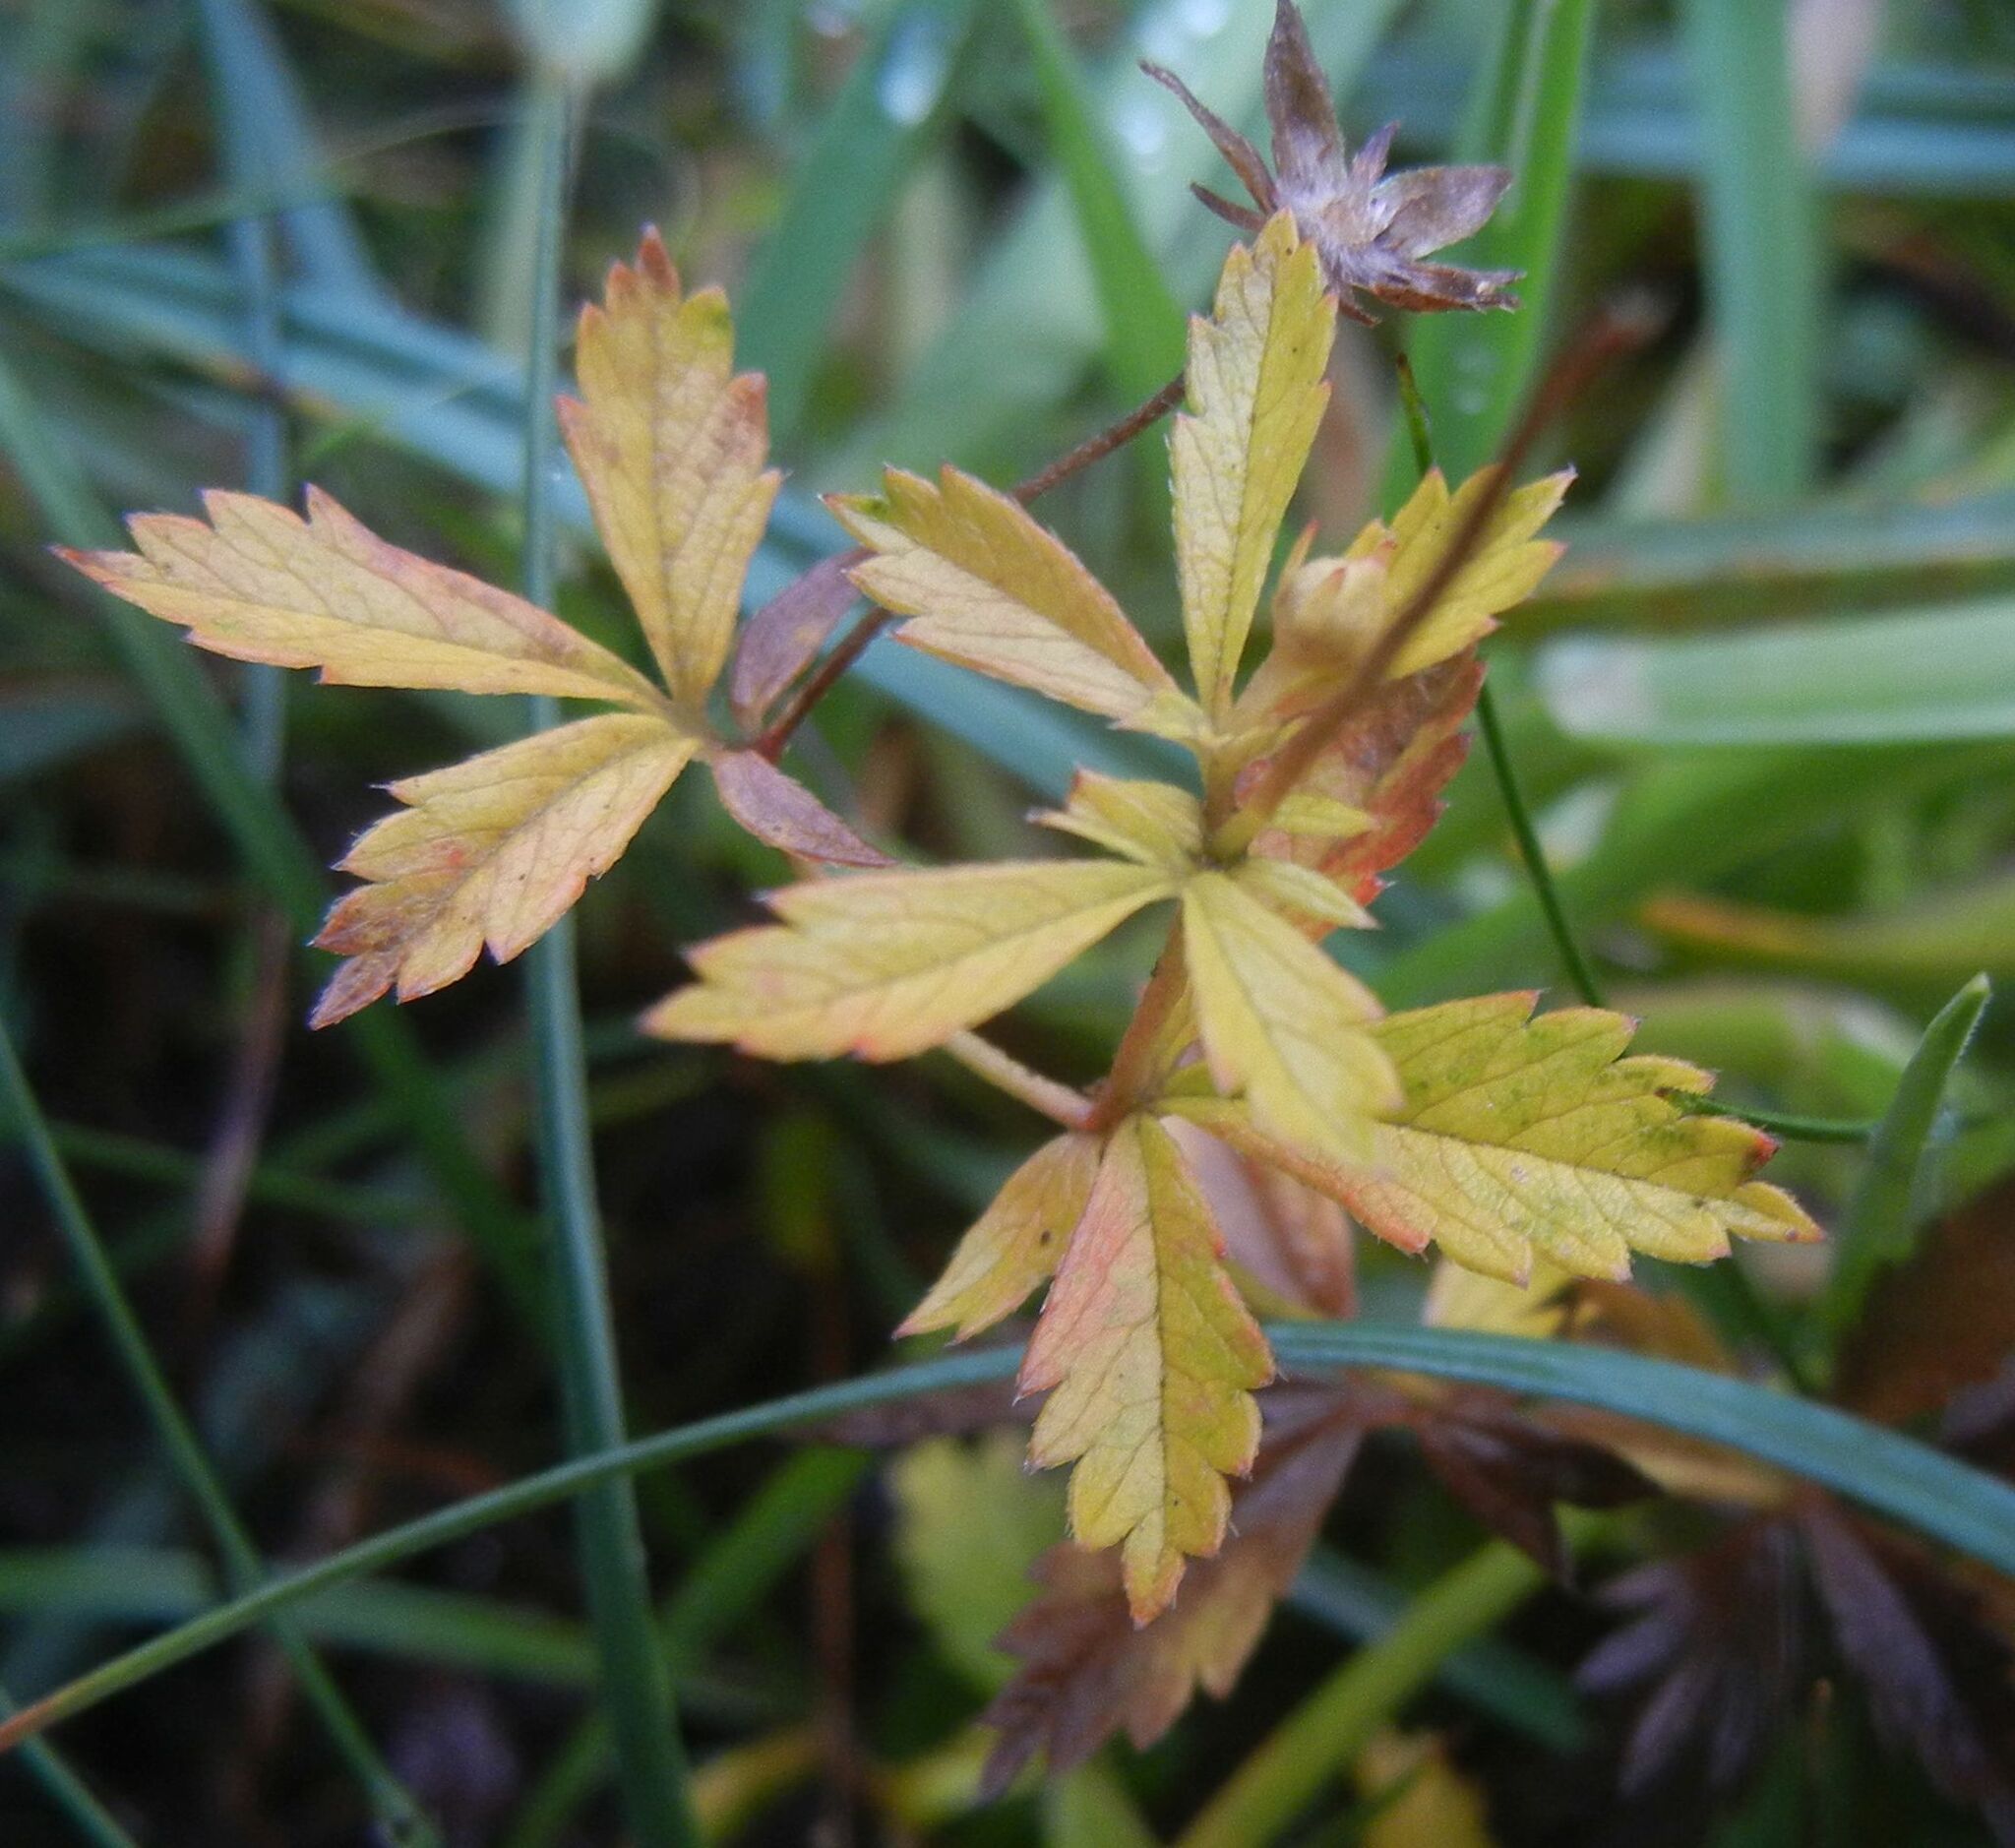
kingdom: Plantae
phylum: Tracheophyta
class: Magnoliopsida
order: Rosales
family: Rosaceae
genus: Potentilla
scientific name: Potentilla erecta
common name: Tormentil
